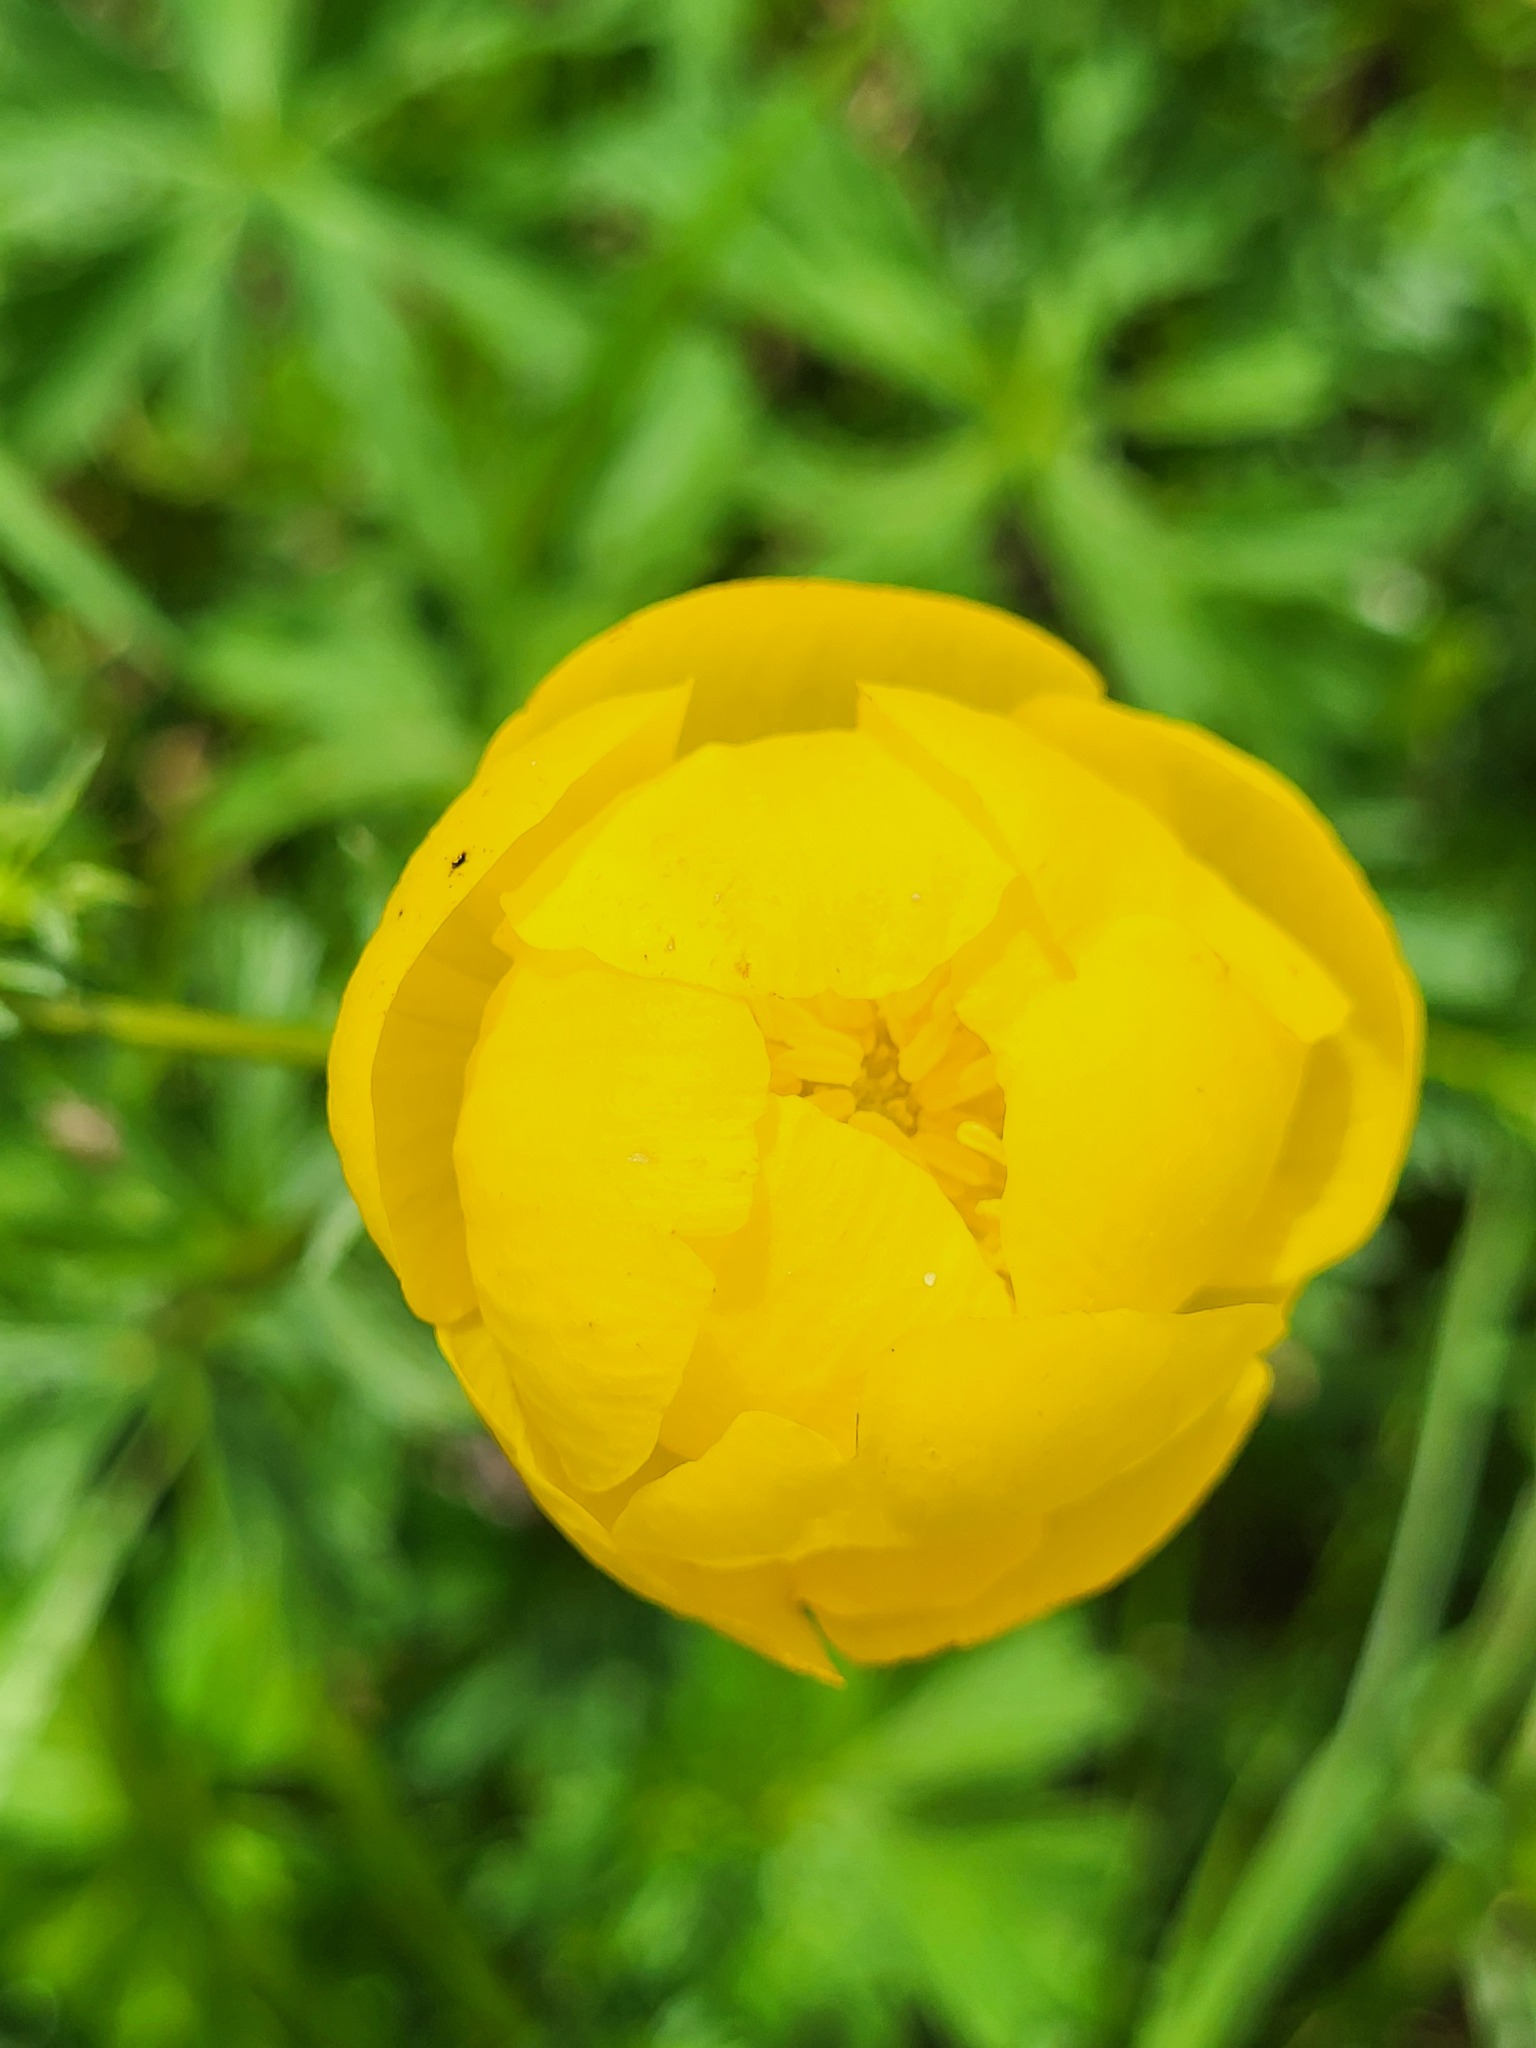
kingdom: Plantae
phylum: Tracheophyta
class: Magnoliopsida
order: Ranunculales
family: Ranunculaceae
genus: Trollius
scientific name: Trollius europaeus
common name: European globeflower
